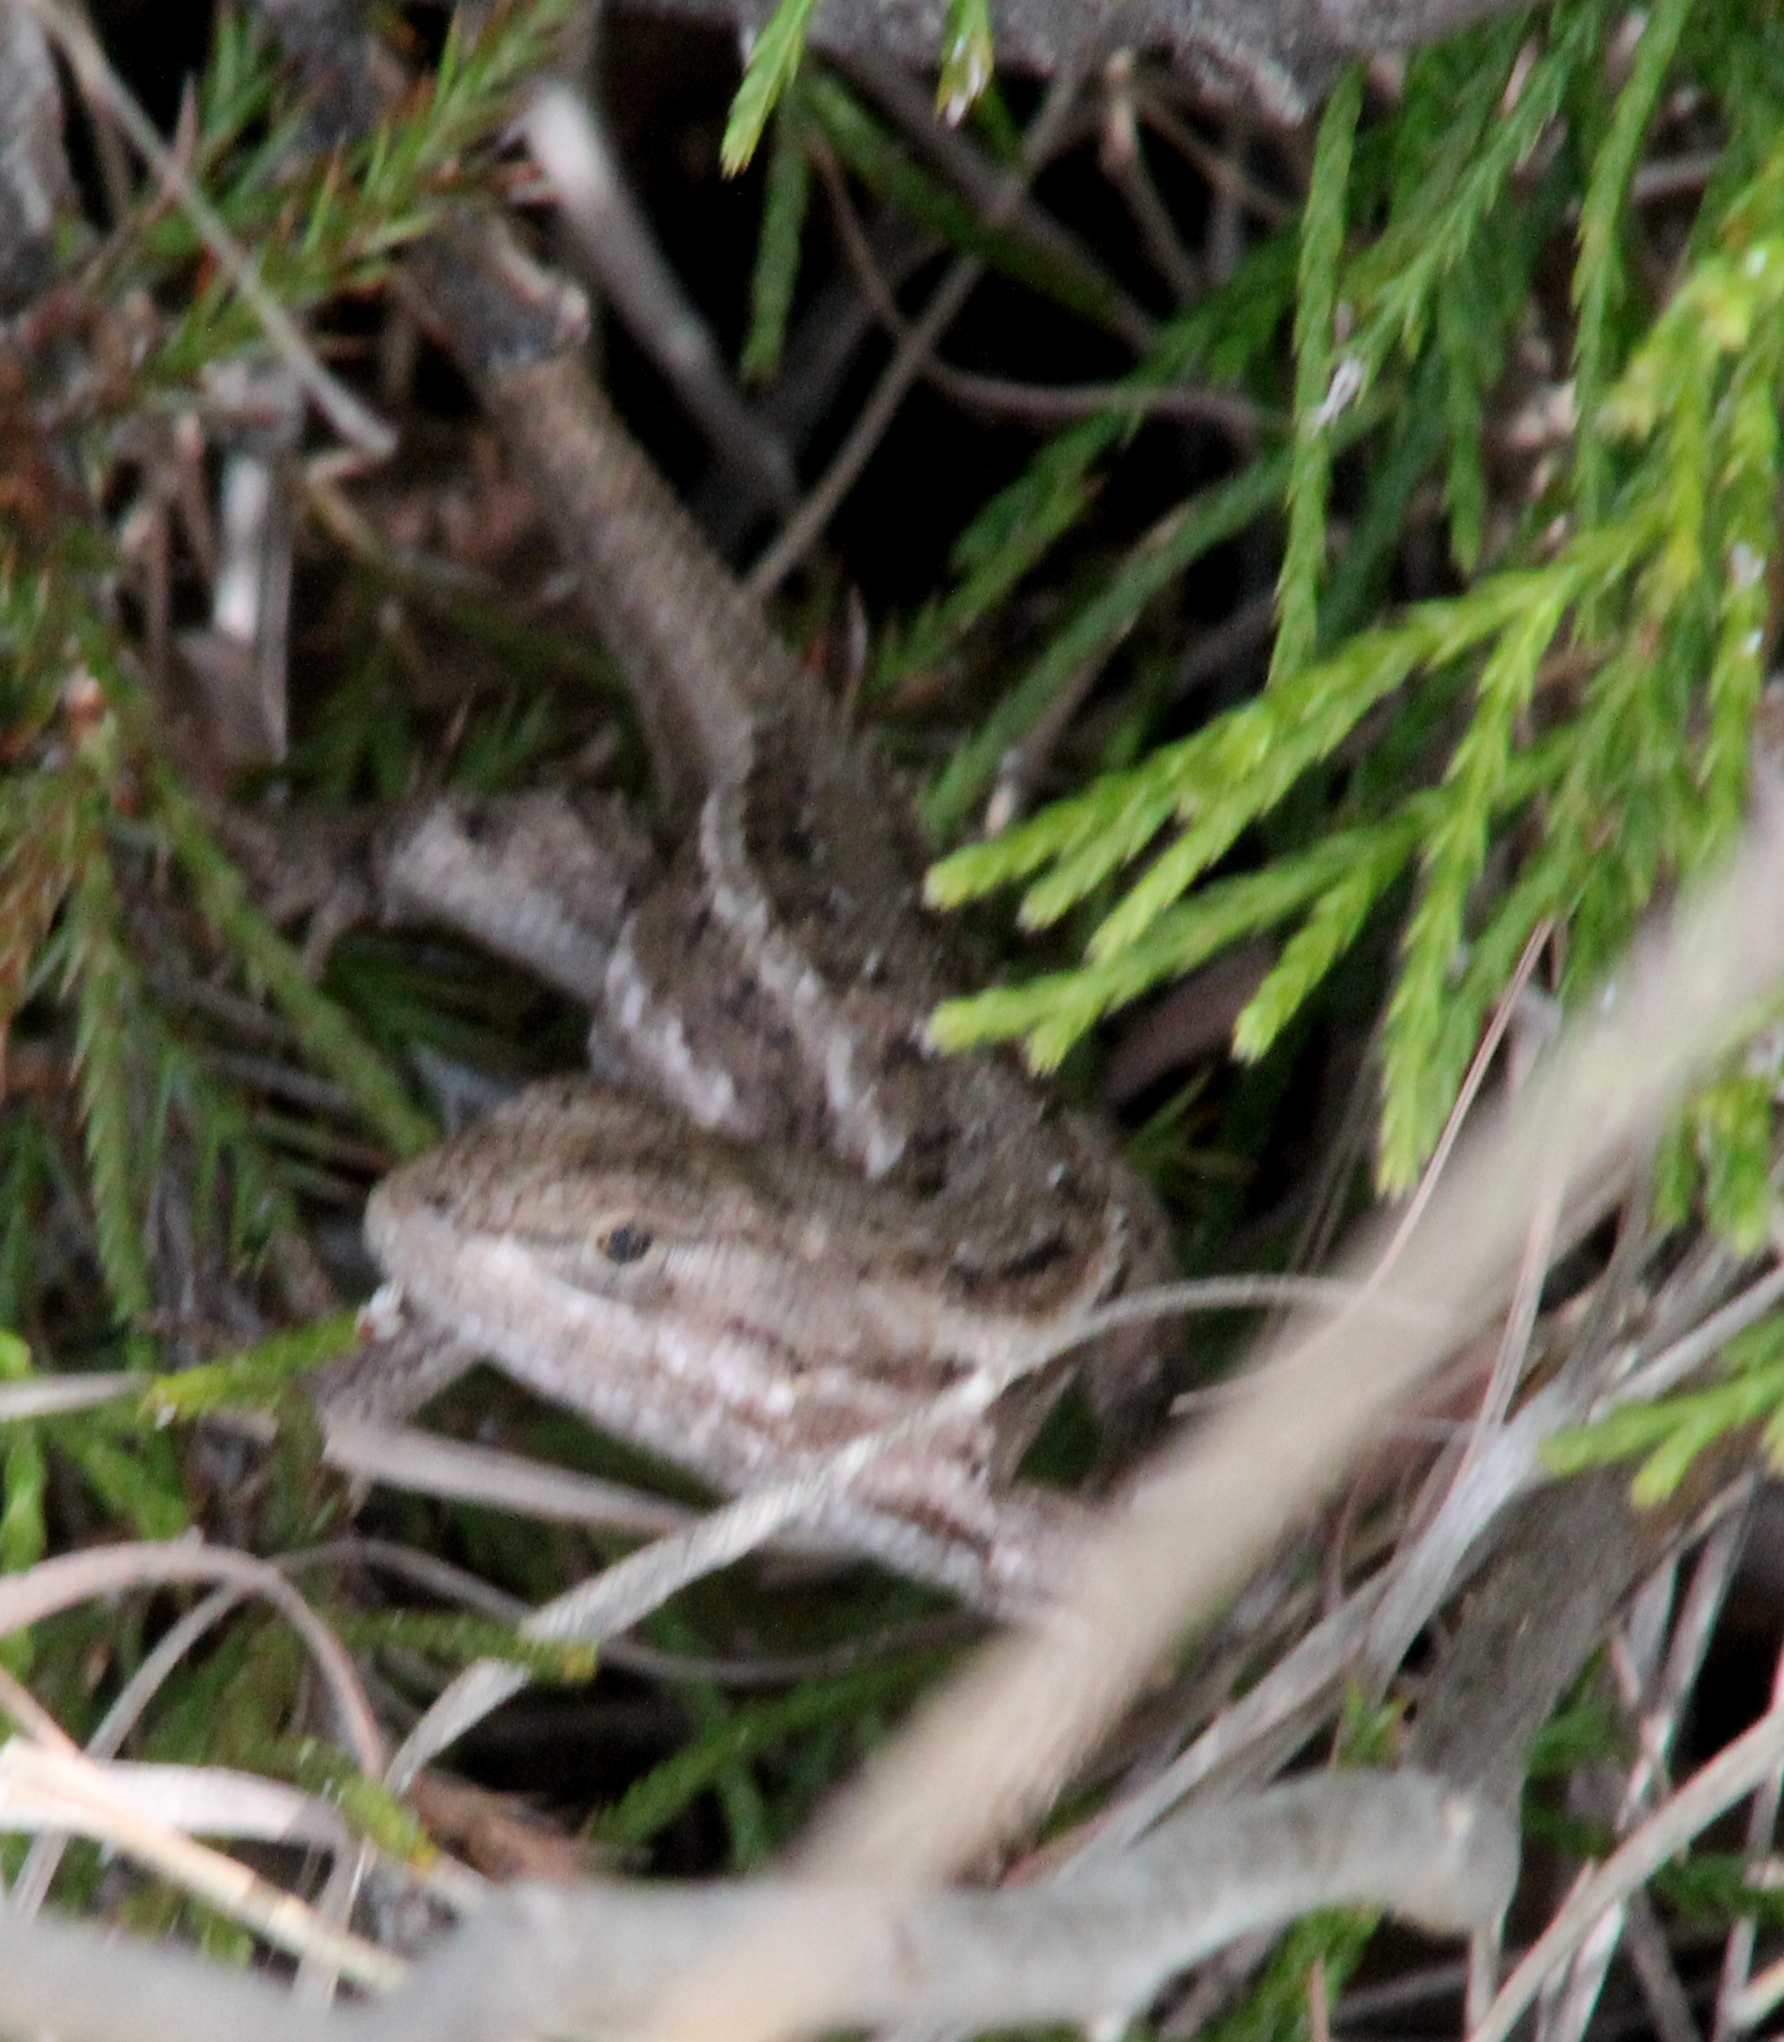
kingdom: Animalia
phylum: Chordata
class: Squamata
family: Phrynosomatidae
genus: Sceloporus
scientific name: Sceloporus consobrinus
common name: Southern prairie lizard
